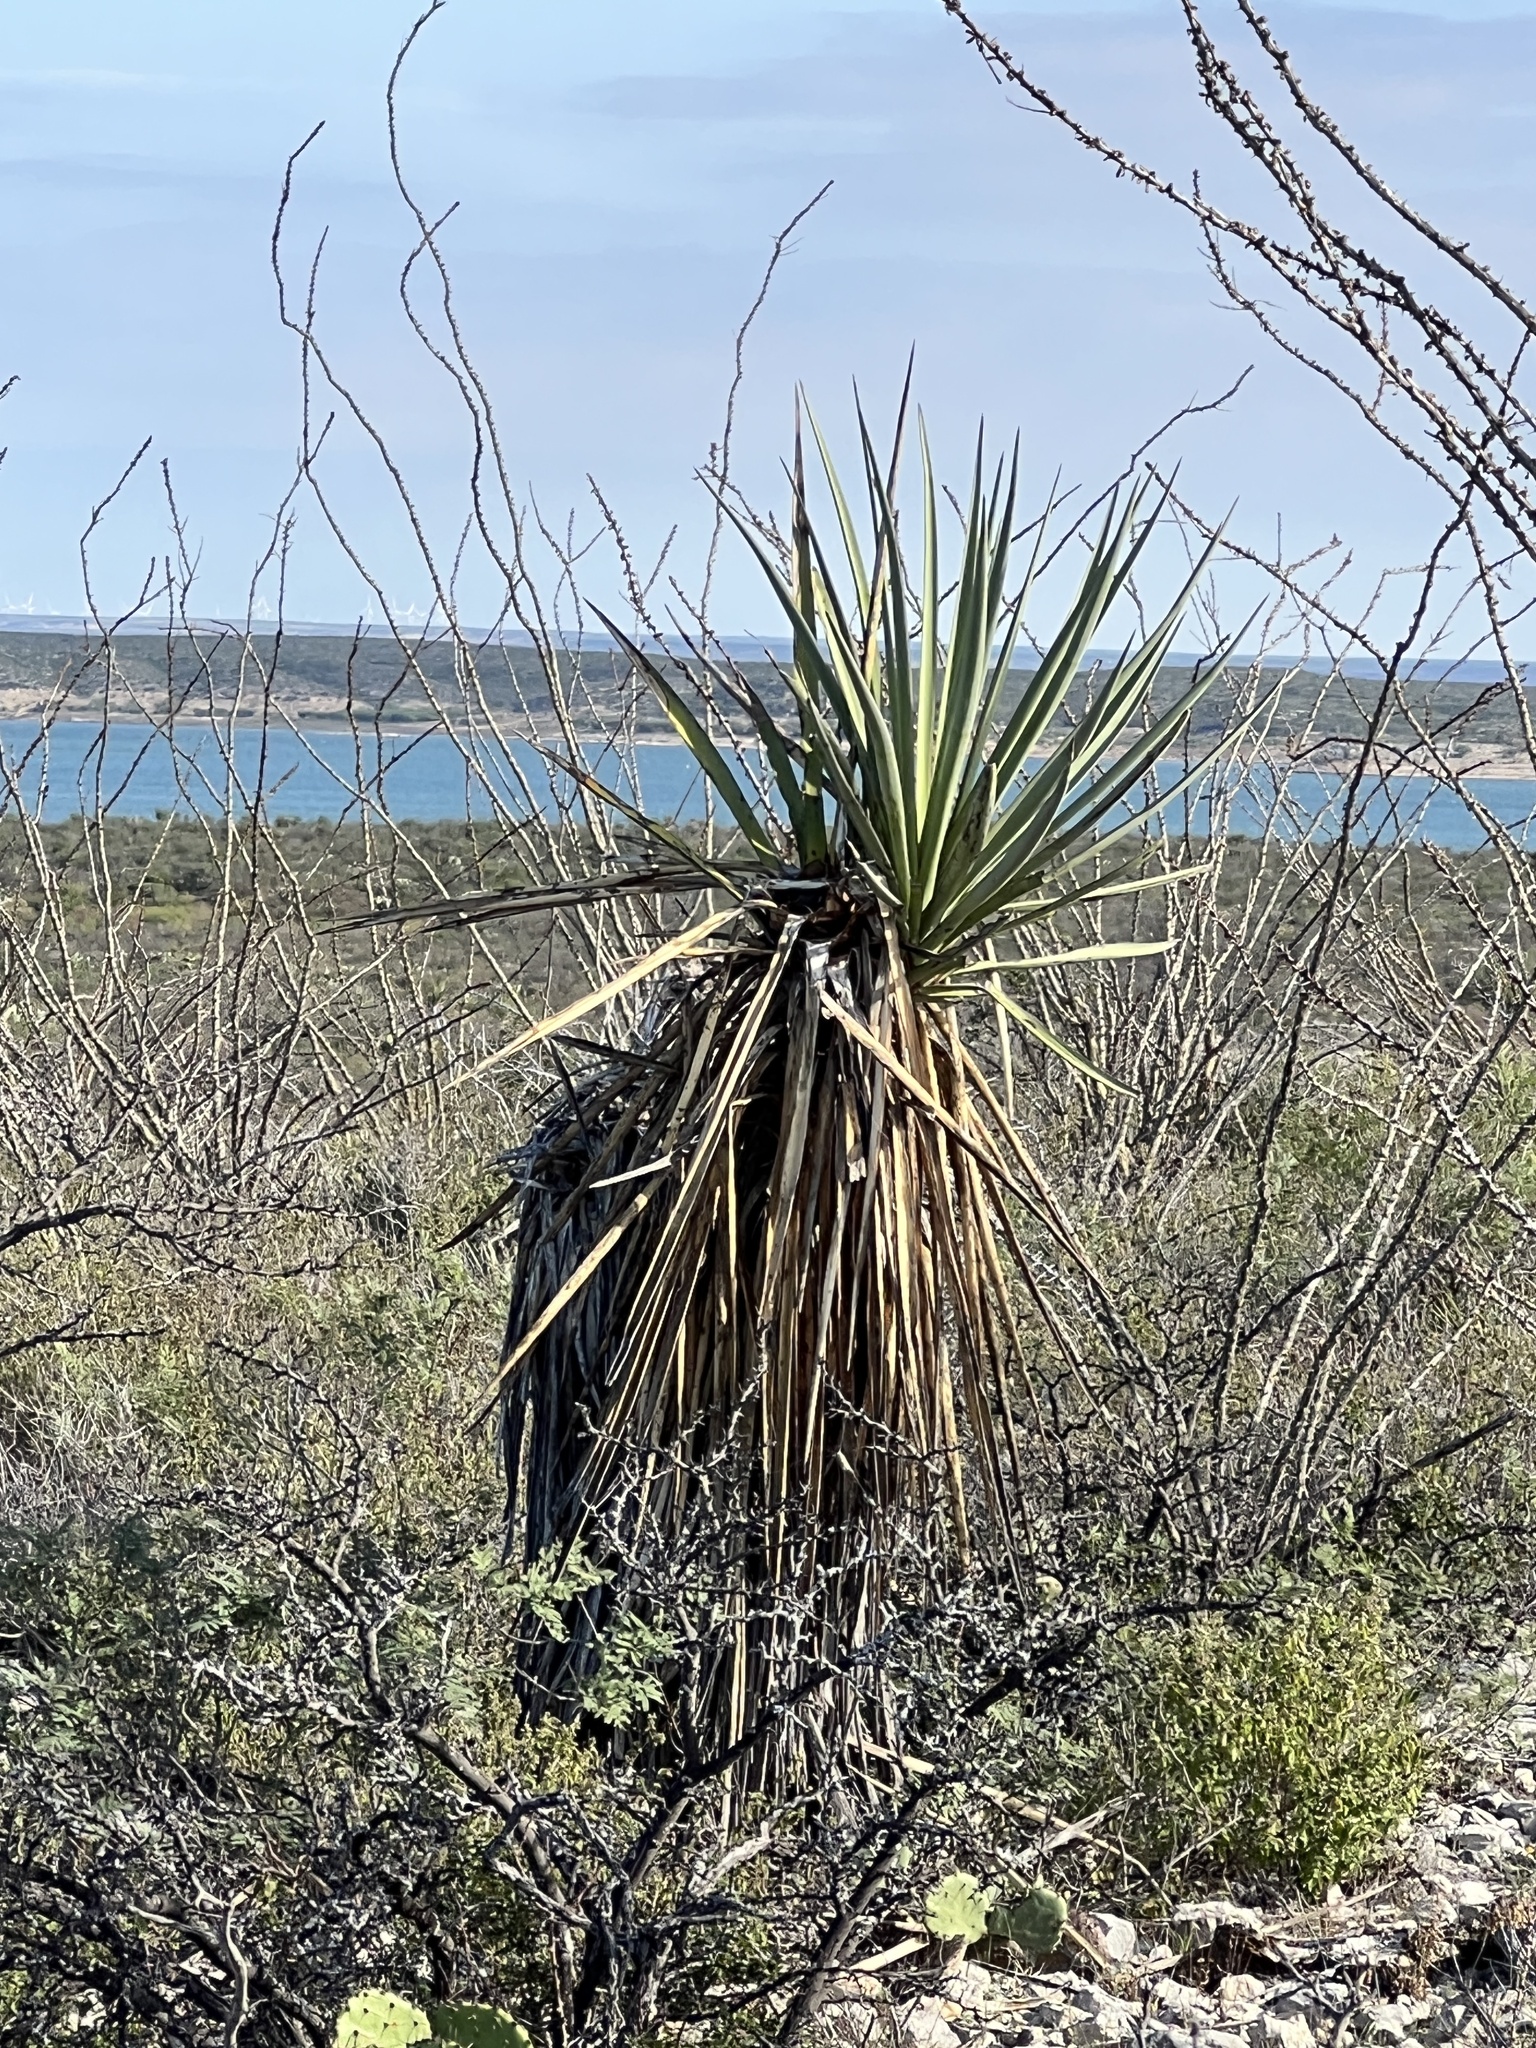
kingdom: Plantae
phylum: Tracheophyta
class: Liliopsida
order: Asparagales
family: Asparagaceae
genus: Yucca
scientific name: Yucca treculiana
